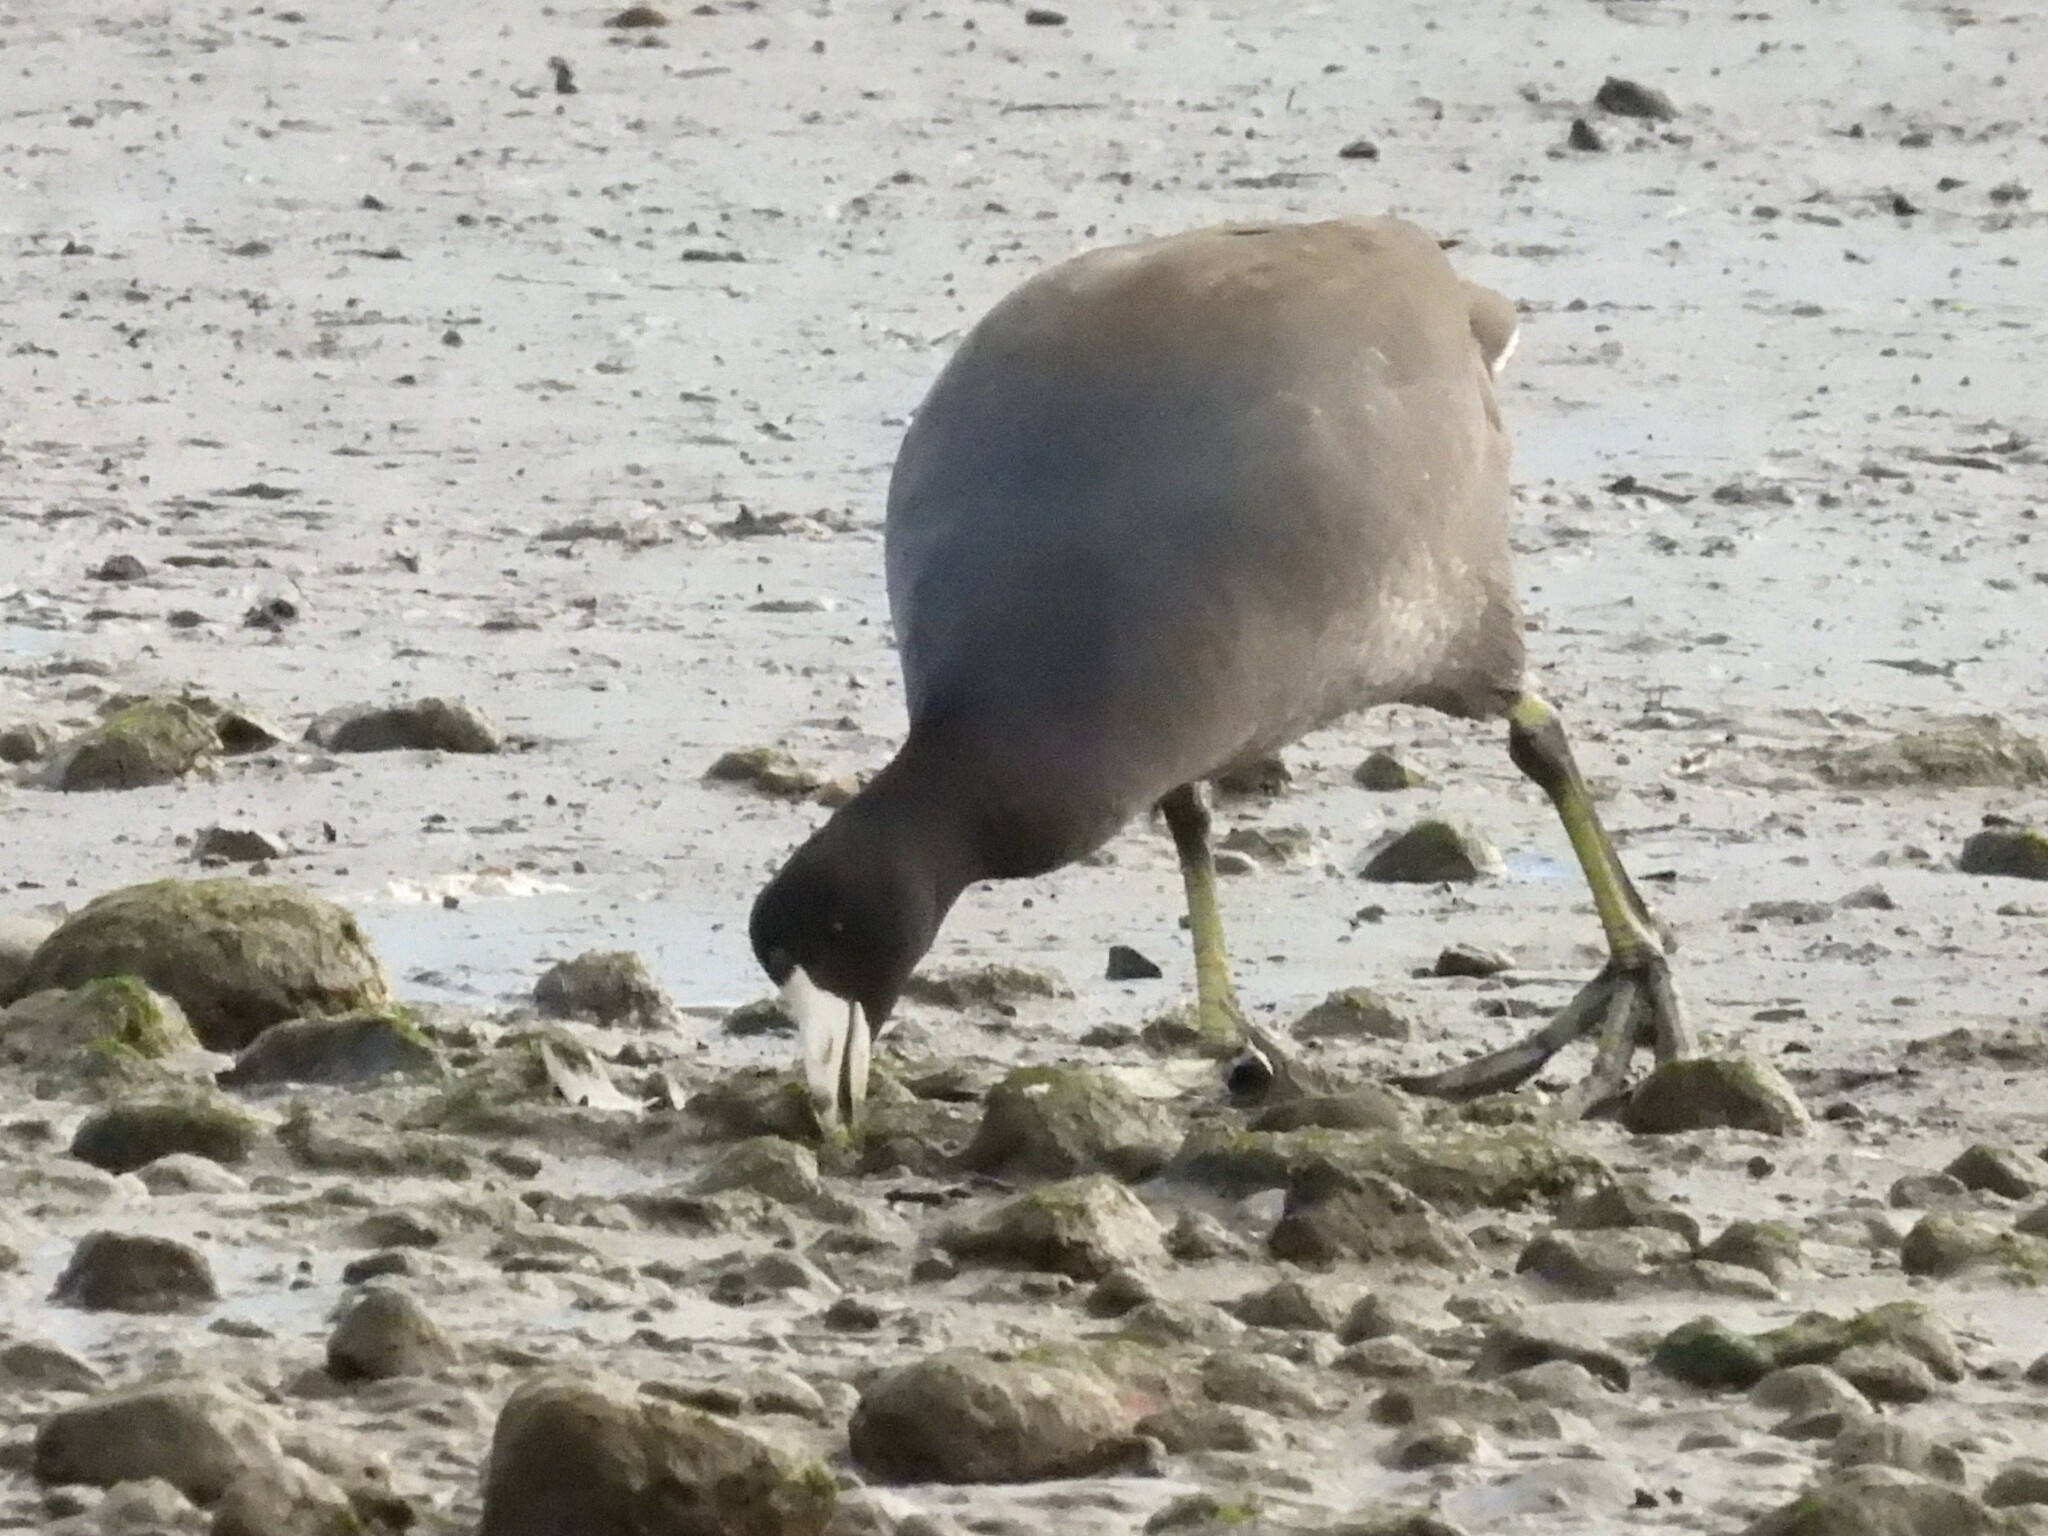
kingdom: Animalia
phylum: Chordata
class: Aves
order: Gruiformes
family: Rallidae
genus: Fulica
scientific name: Fulica americana
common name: American coot
